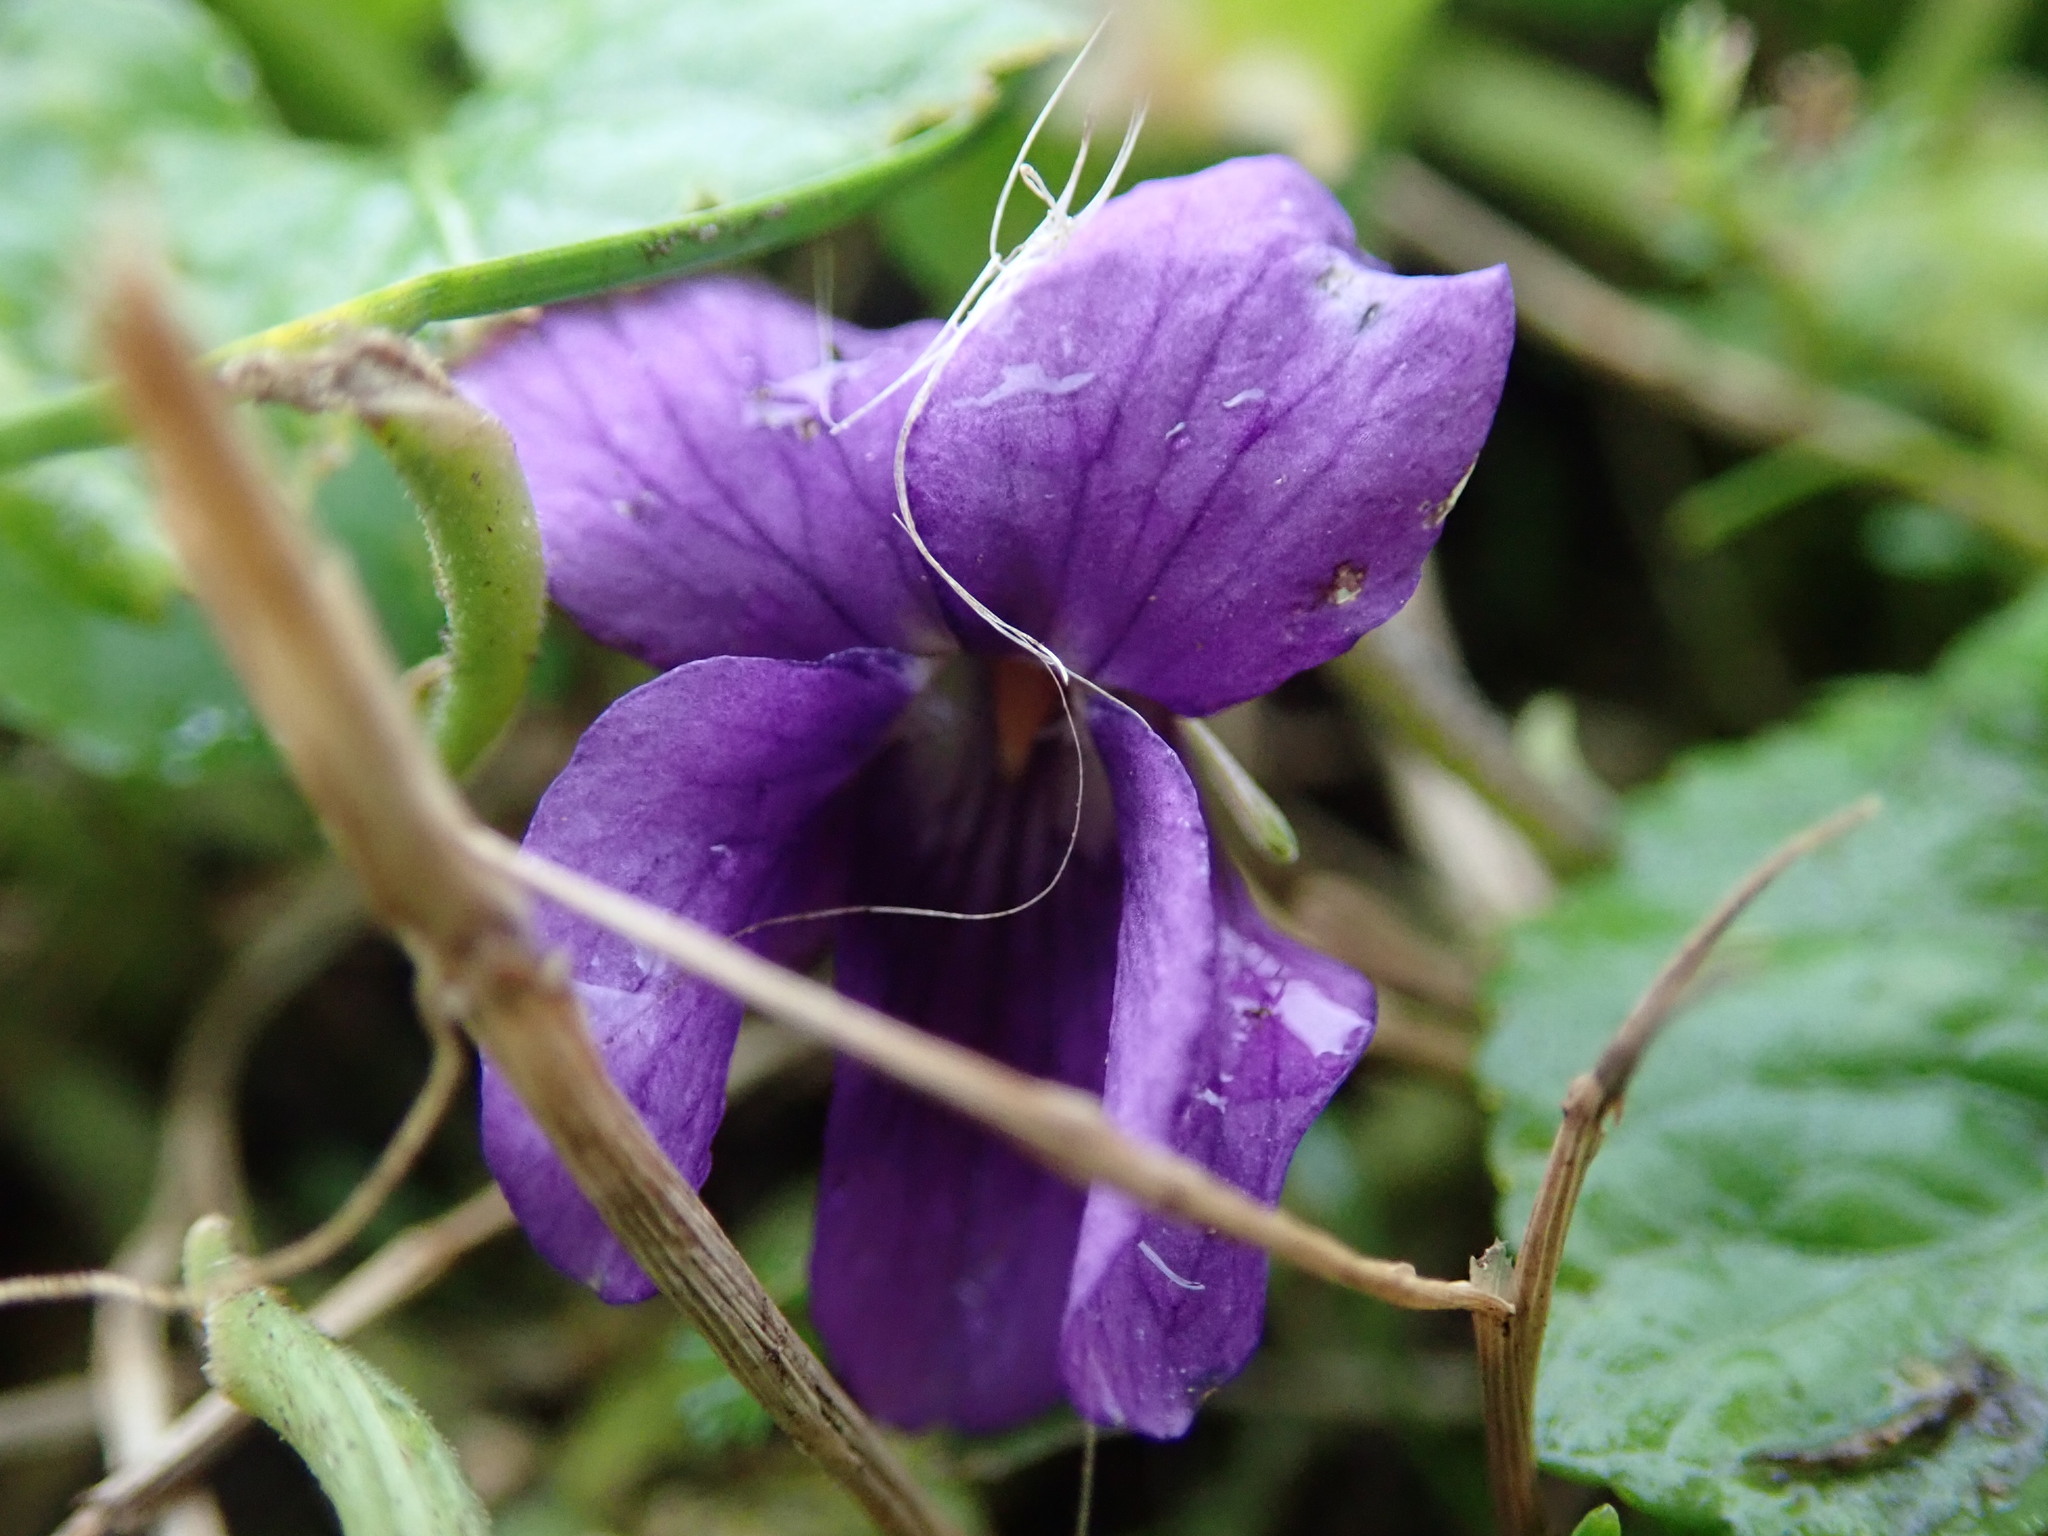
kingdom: Plantae
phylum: Tracheophyta
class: Magnoliopsida
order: Malpighiales
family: Violaceae
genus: Viola
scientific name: Viola odorata
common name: Sweet violet
